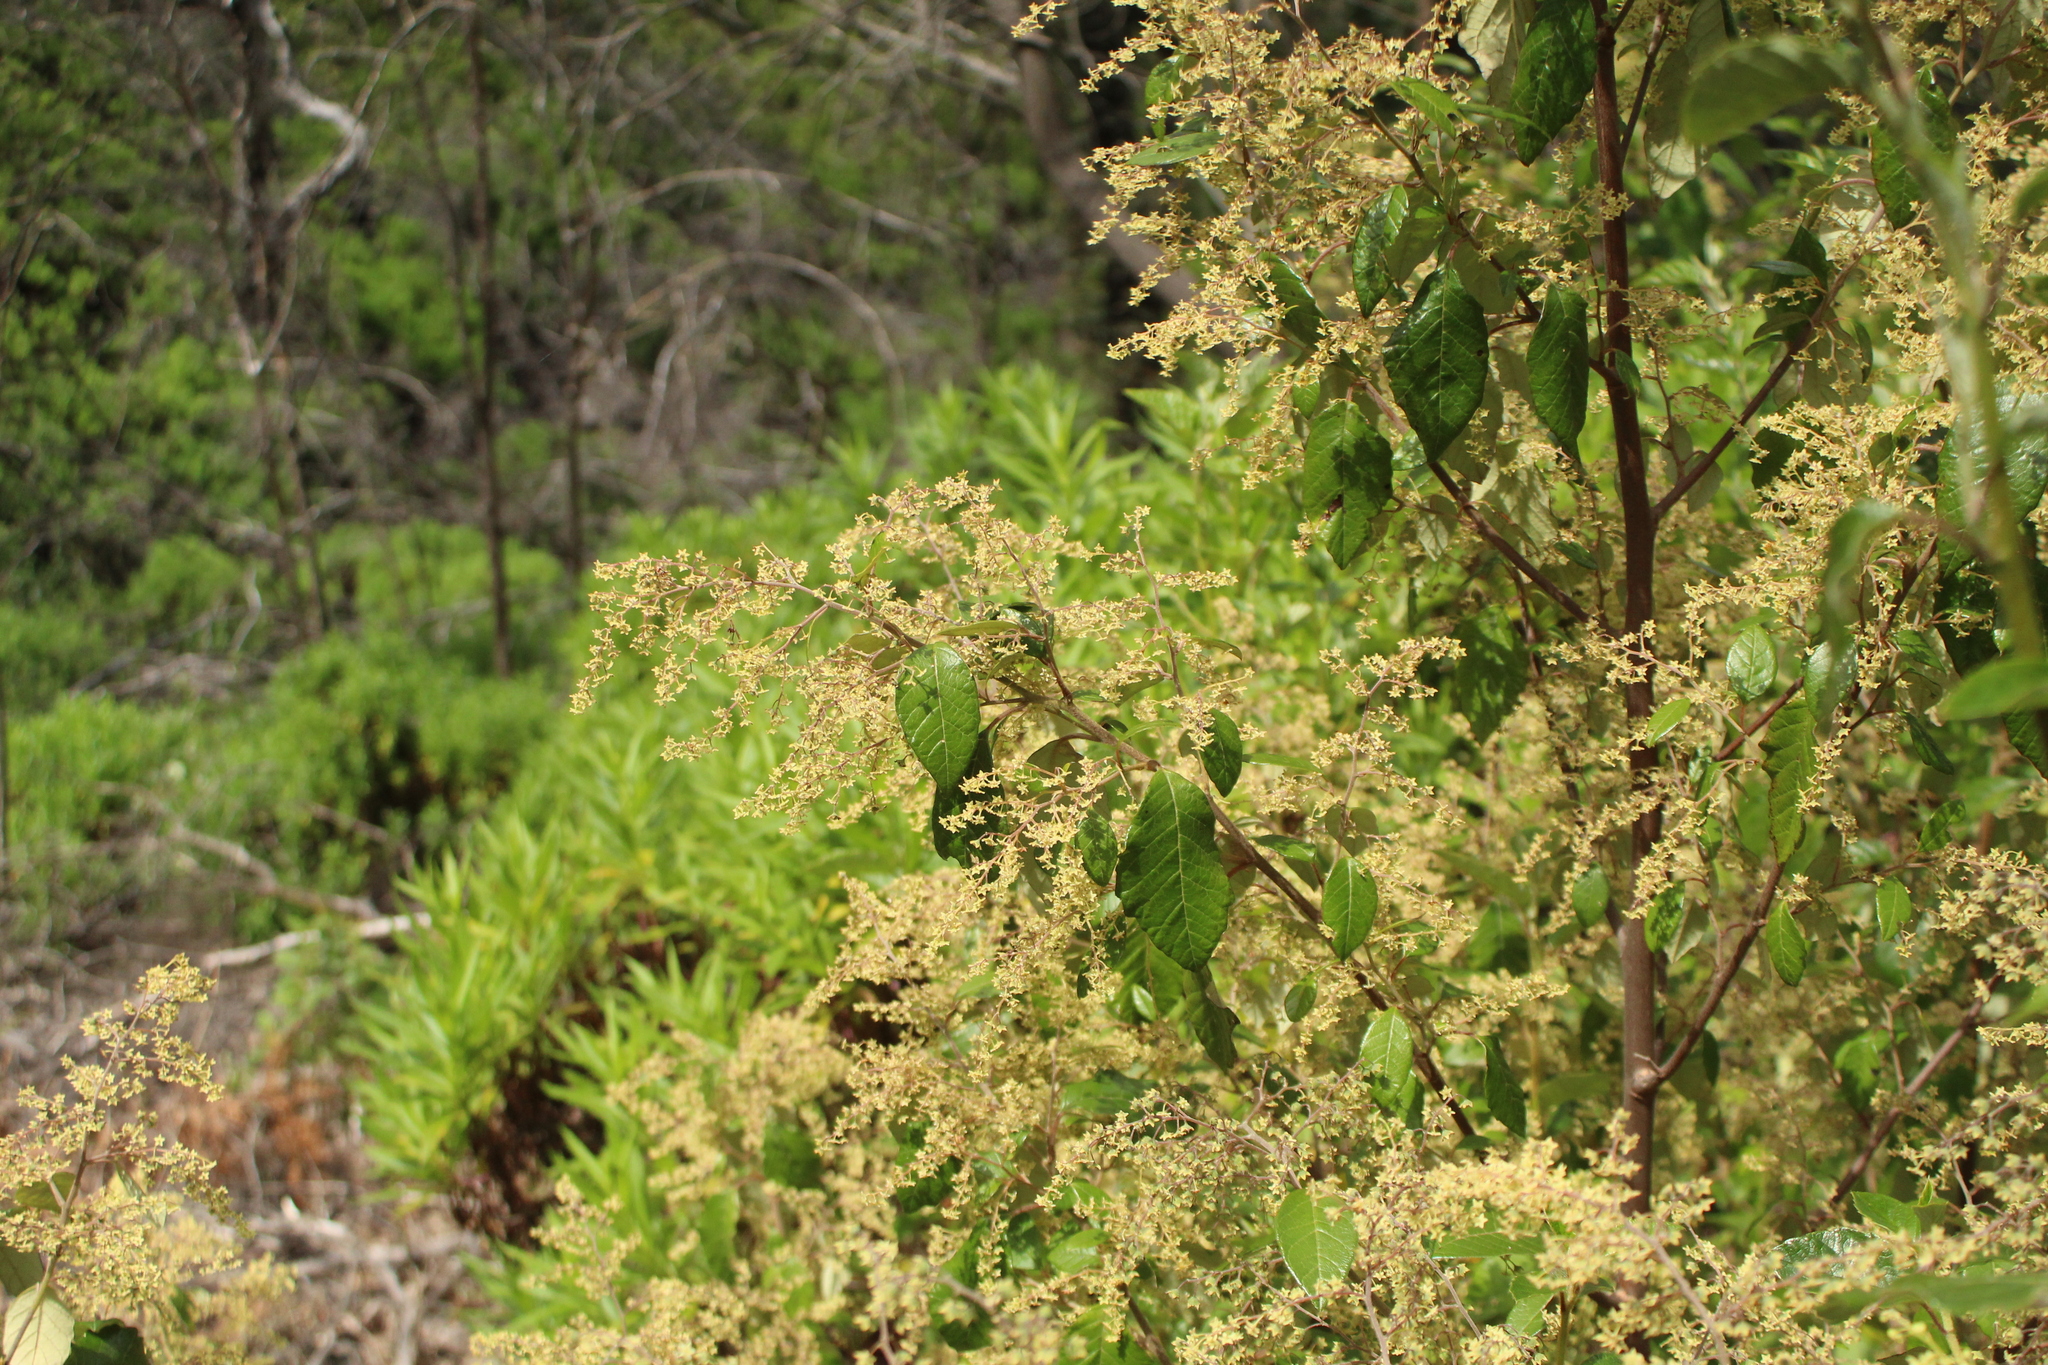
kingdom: Plantae
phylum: Tracheophyta
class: Magnoliopsida
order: Rosales
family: Rhamnaceae
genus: Trymalium
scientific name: Trymalium odoratissimum
